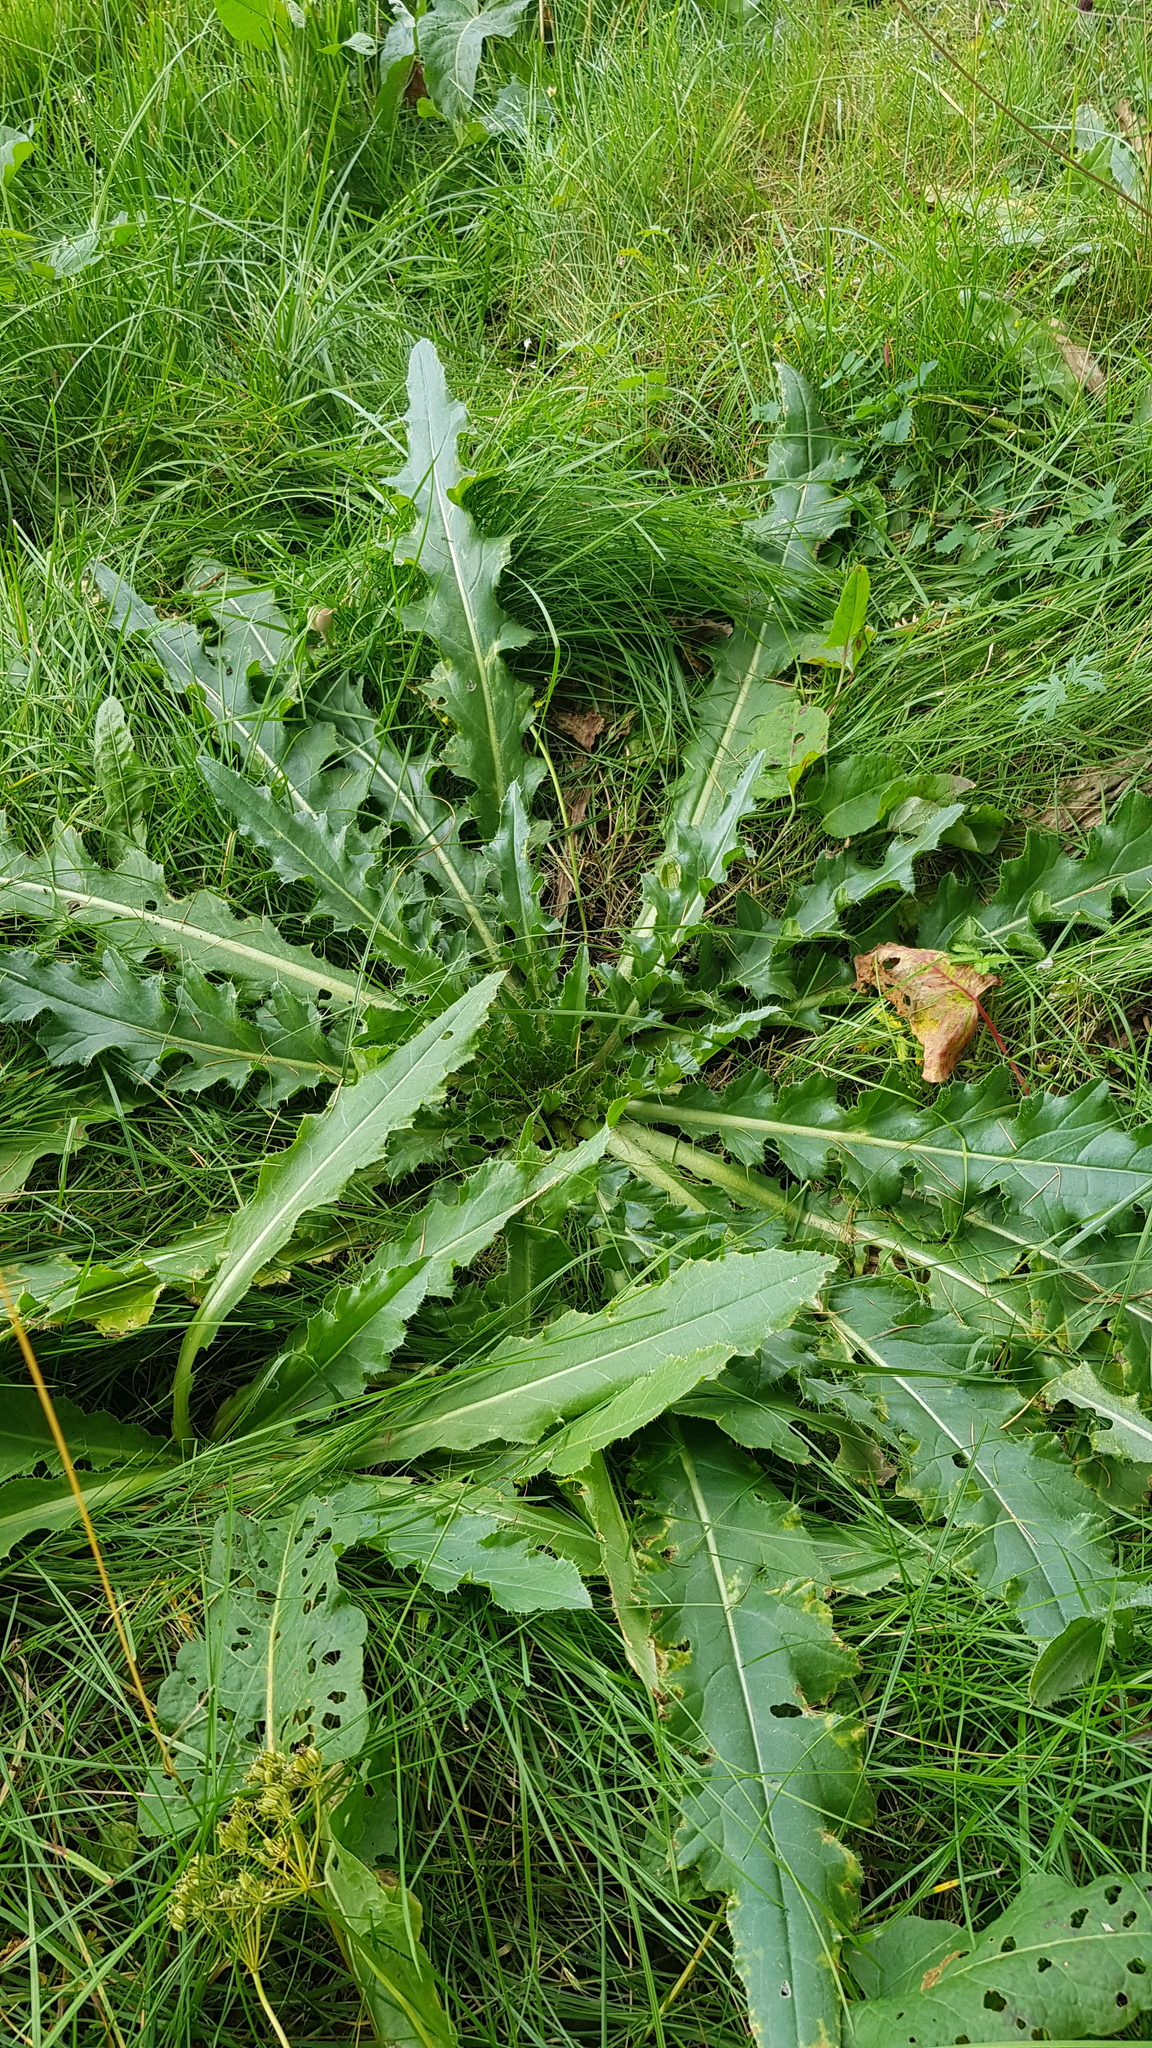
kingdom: Plantae
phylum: Tracheophyta
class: Magnoliopsida
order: Asterales
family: Asteraceae
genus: Cirsium
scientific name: Cirsium esculentum
